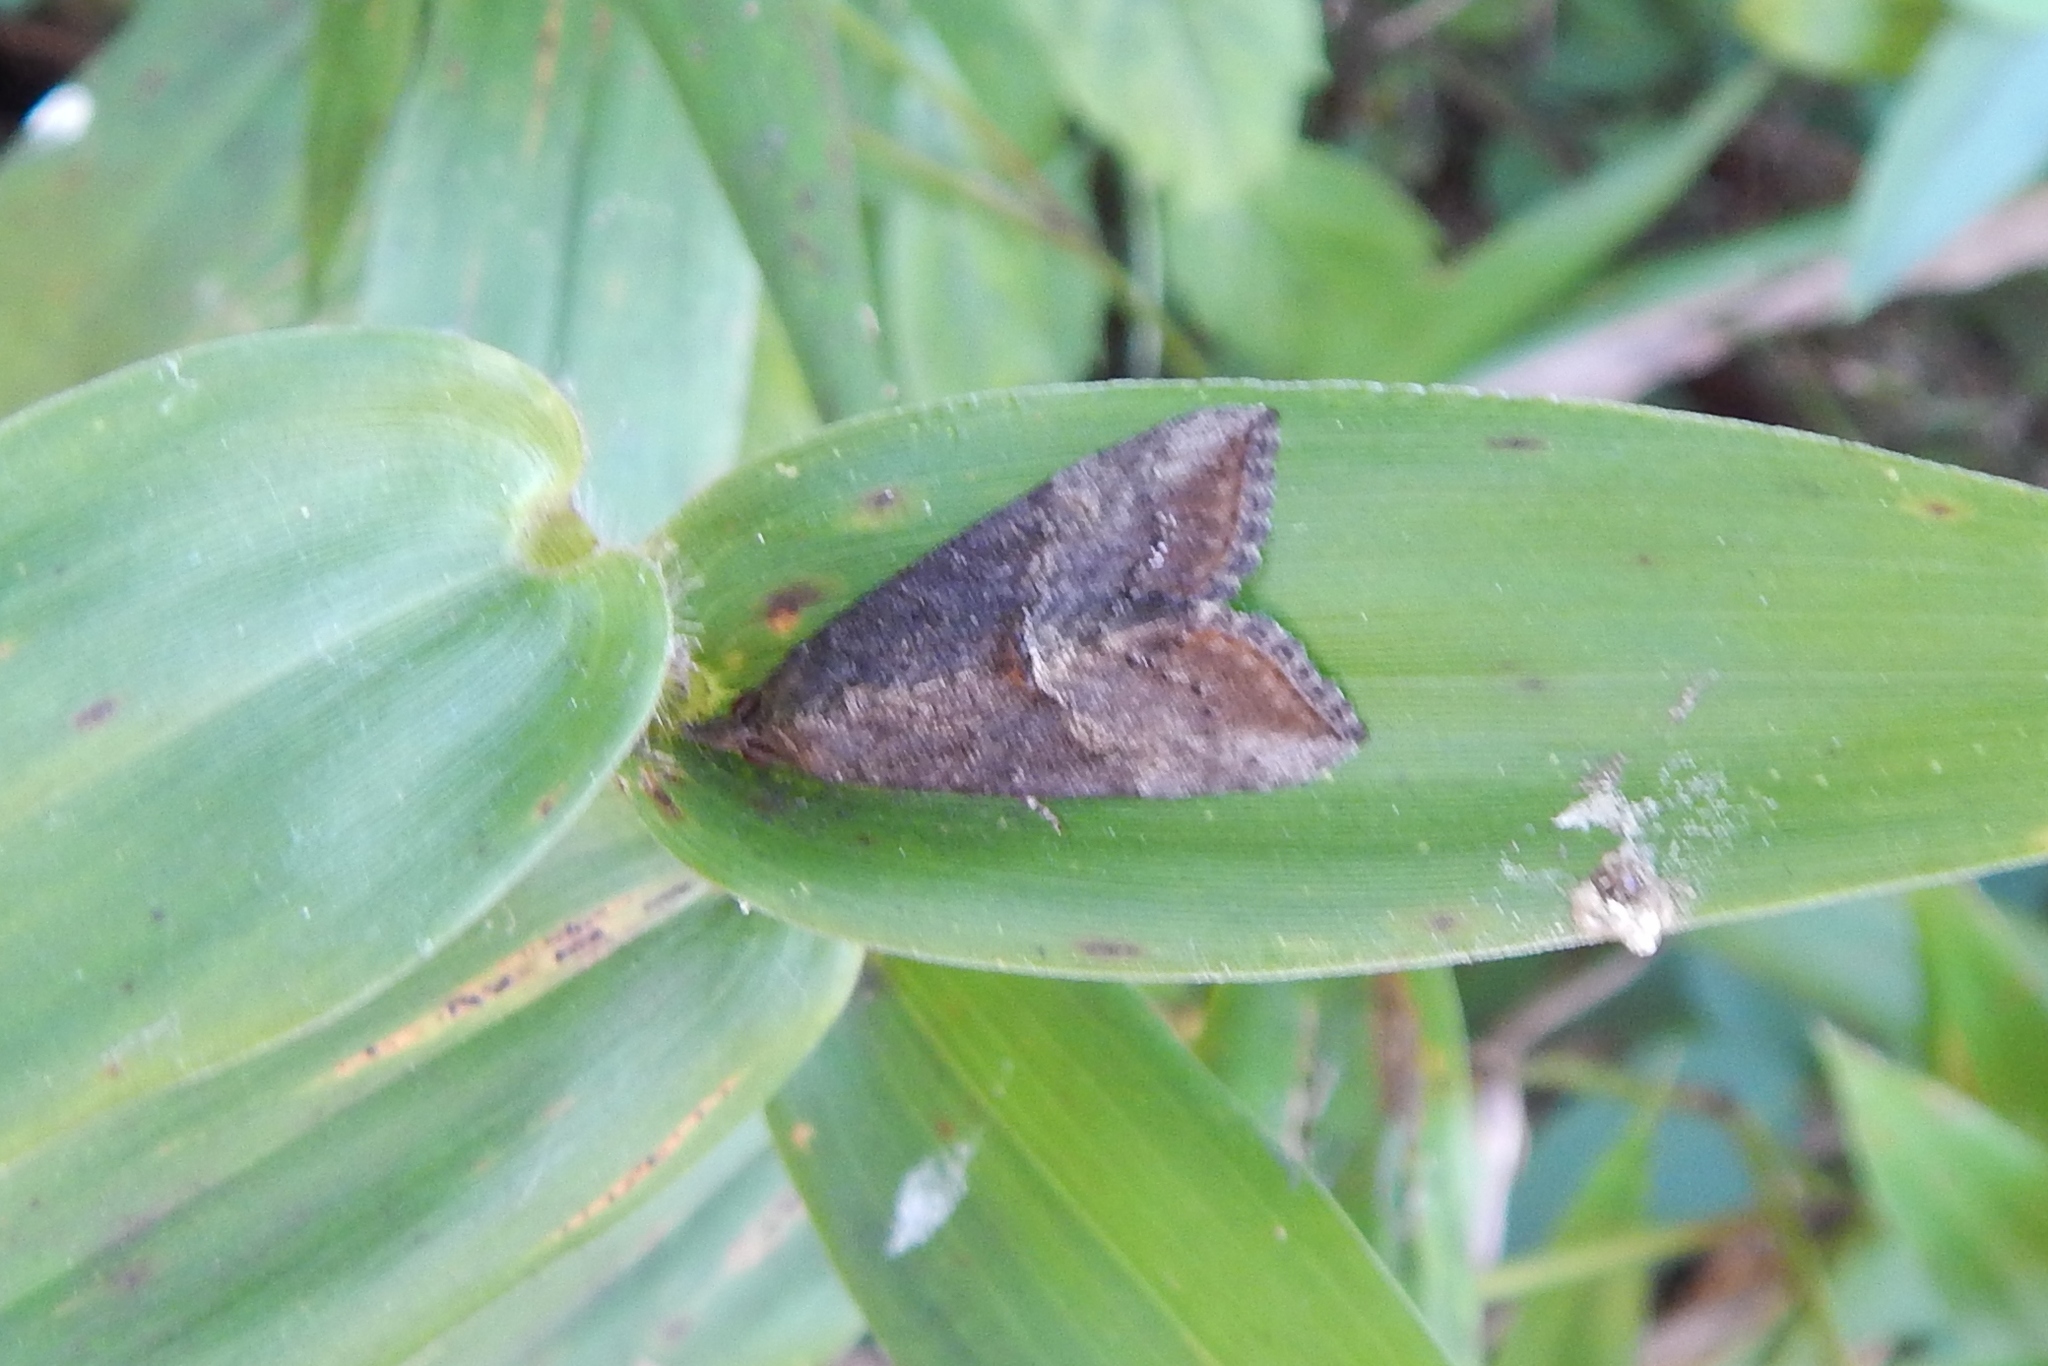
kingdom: Animalia
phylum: Arthropoda
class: Insecta
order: Lepidoptera
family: Erebidae
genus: Hypena
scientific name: Hypena scabra
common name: Green cloverworm
